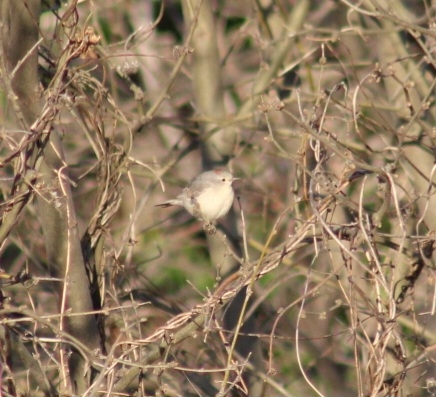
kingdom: Animalia
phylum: Chordata
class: Aves
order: Passeriformes
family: Parulidae
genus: Leiothlypis
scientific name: Leiothlypis luciae
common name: Lucy's warbler
